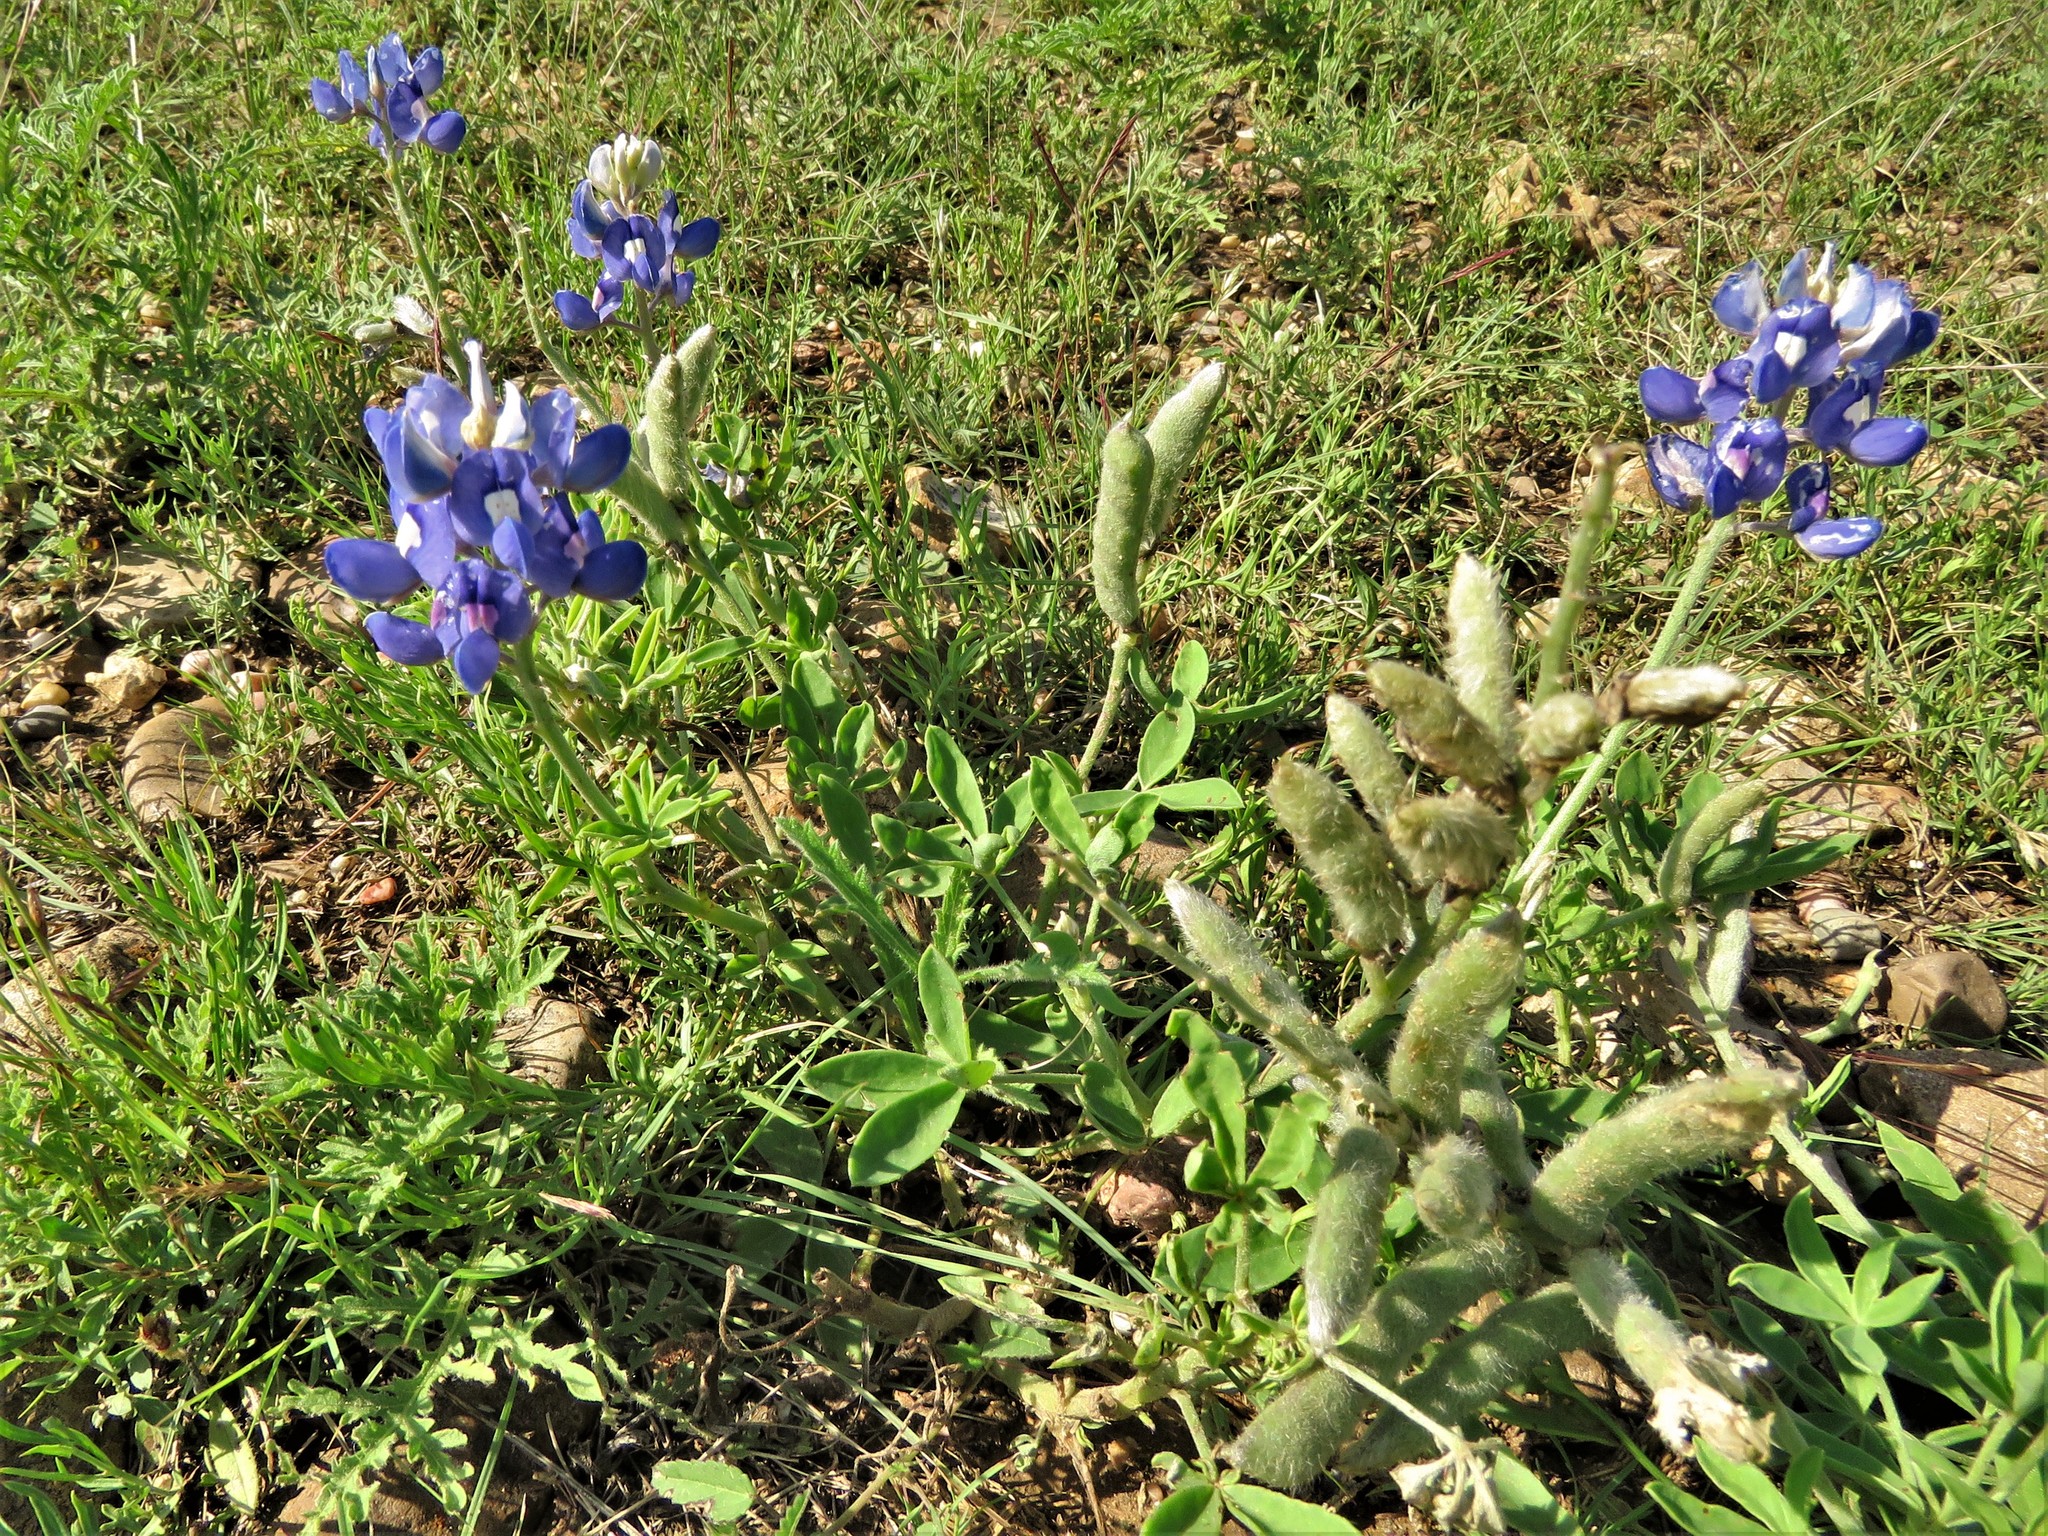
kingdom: Plantae
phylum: Tracheophyta
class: Magnoliopsida
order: Fabales
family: Fabaceae
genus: Lupinus
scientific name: Lupinus texensis
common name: Texas bluebonnet
